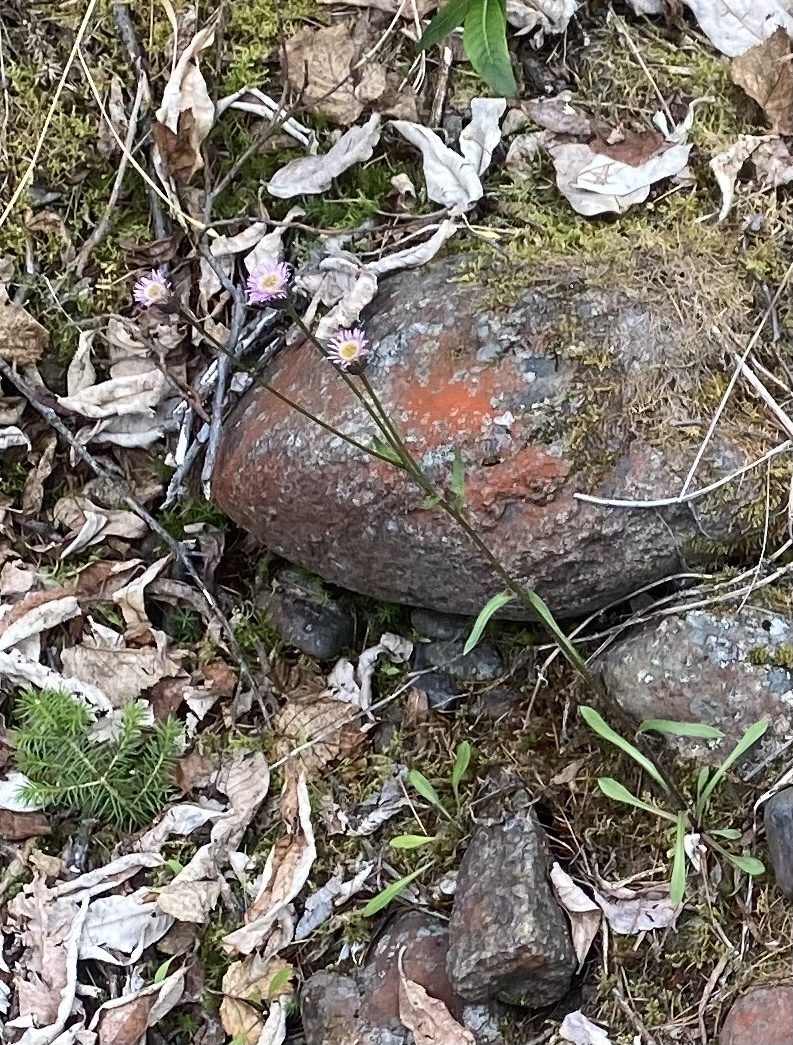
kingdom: Plantae
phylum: Tracheophyta
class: Magnoliopsida
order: Asterales
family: Asteraceae
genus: Erigeron
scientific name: Erigeron acris
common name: Blue fleabane
